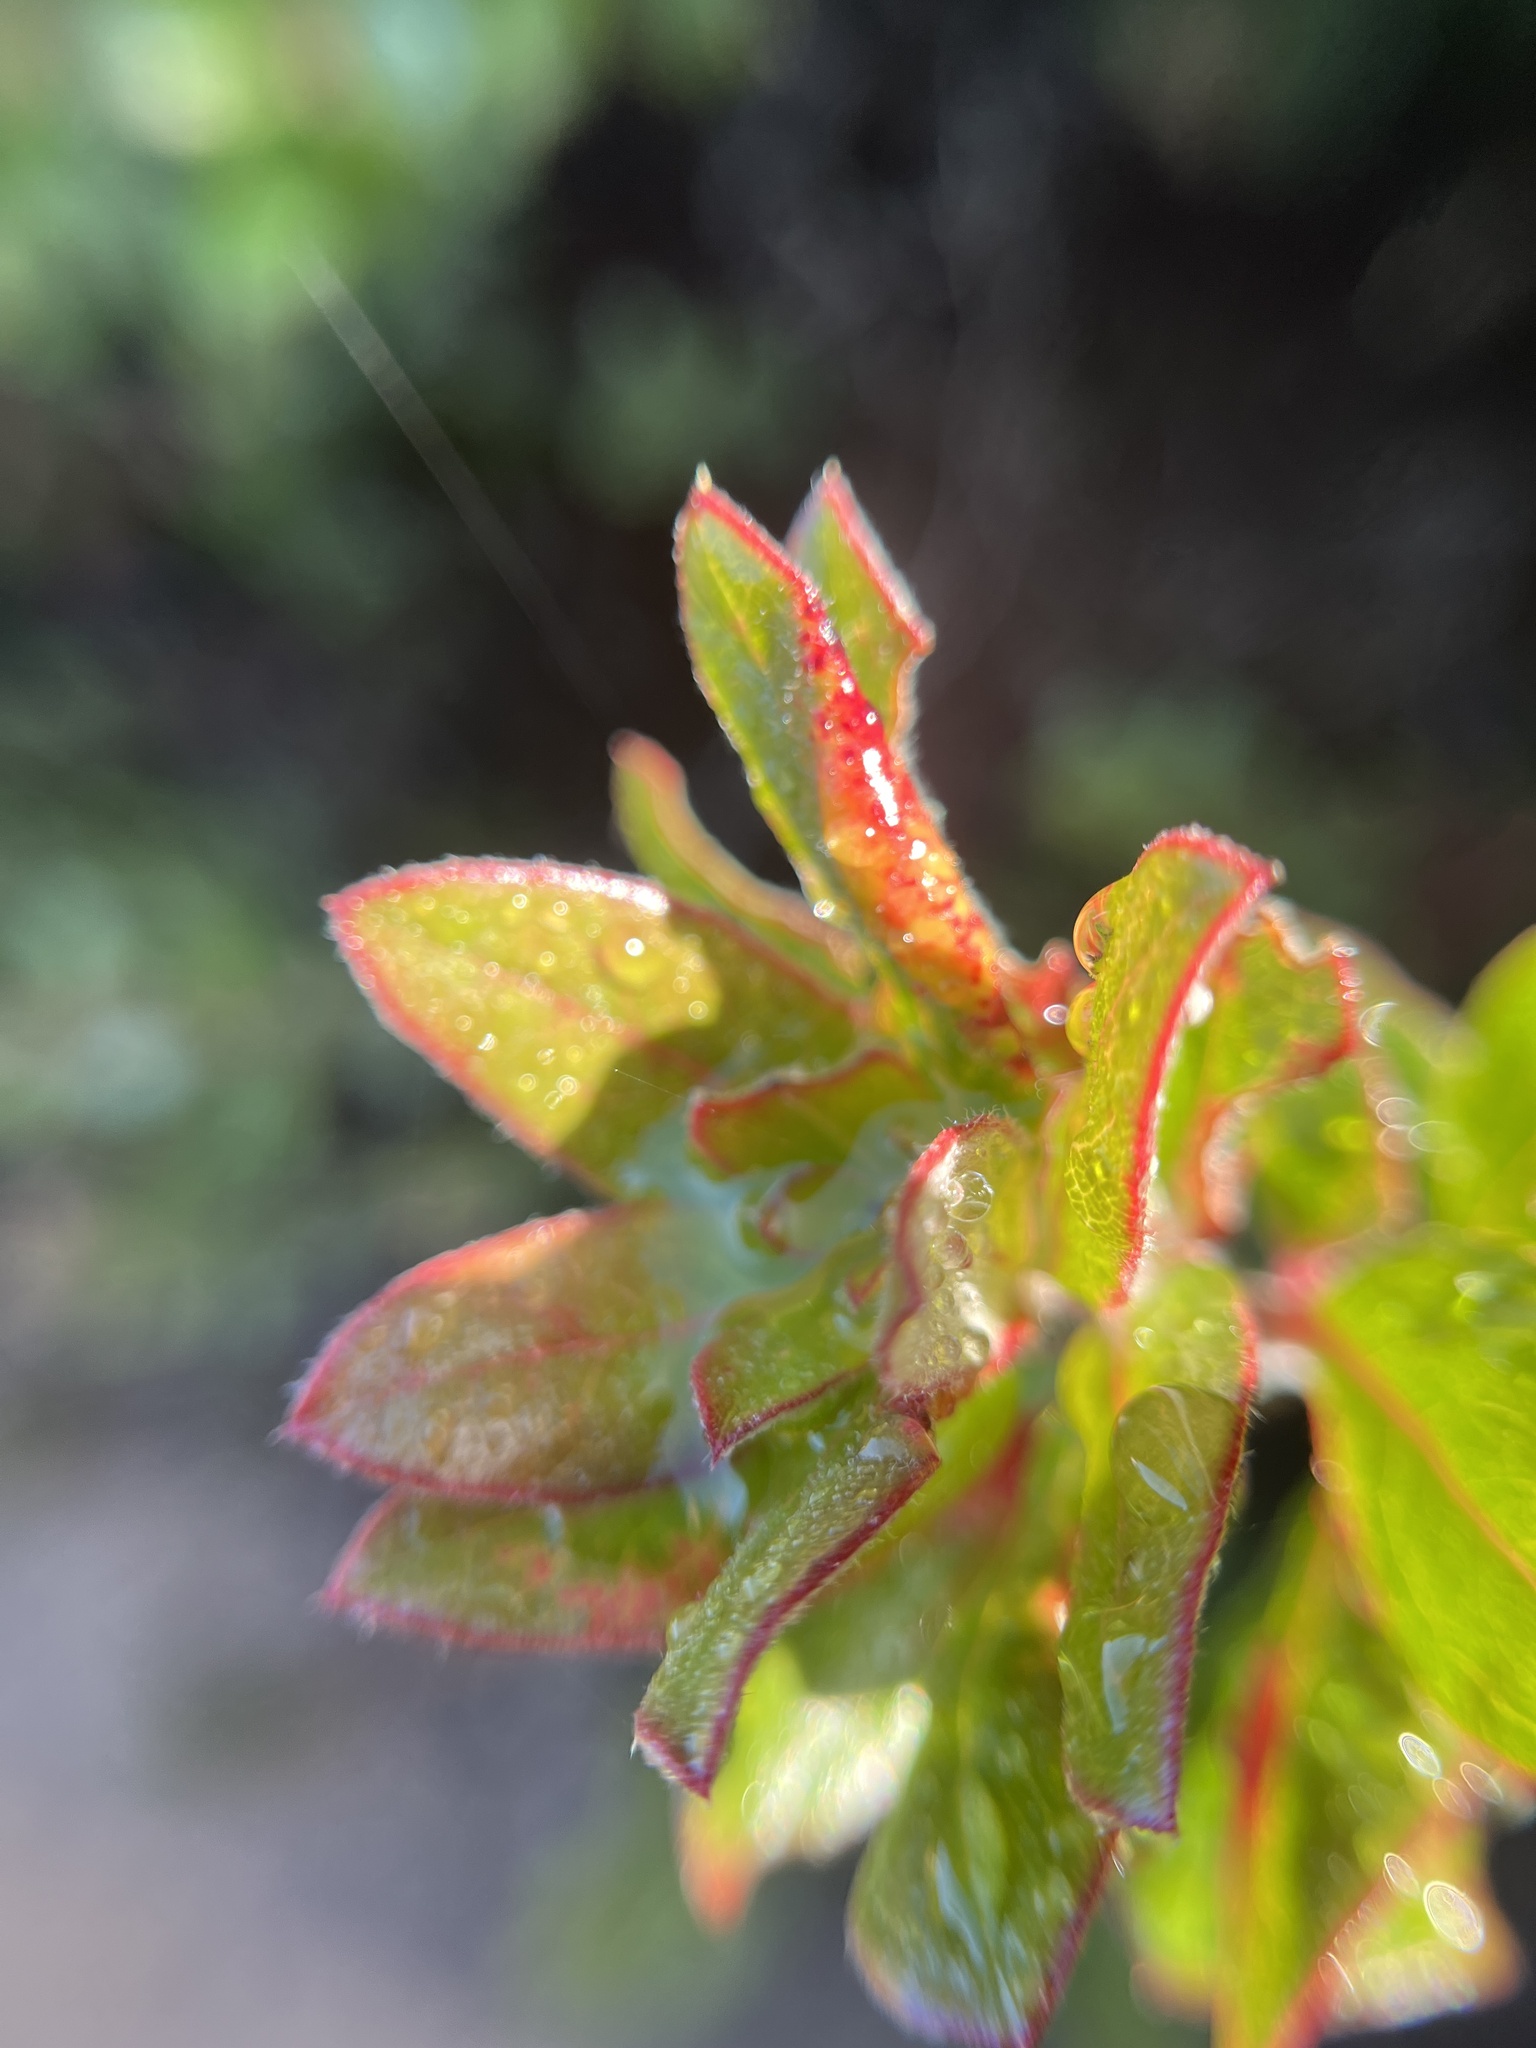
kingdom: Animalia
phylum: Arthropoda
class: Insecta
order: Hemiptera
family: Aphididae
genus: Tamalia
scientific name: Tamalia coweni
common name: Manzanita leafgall aphid
